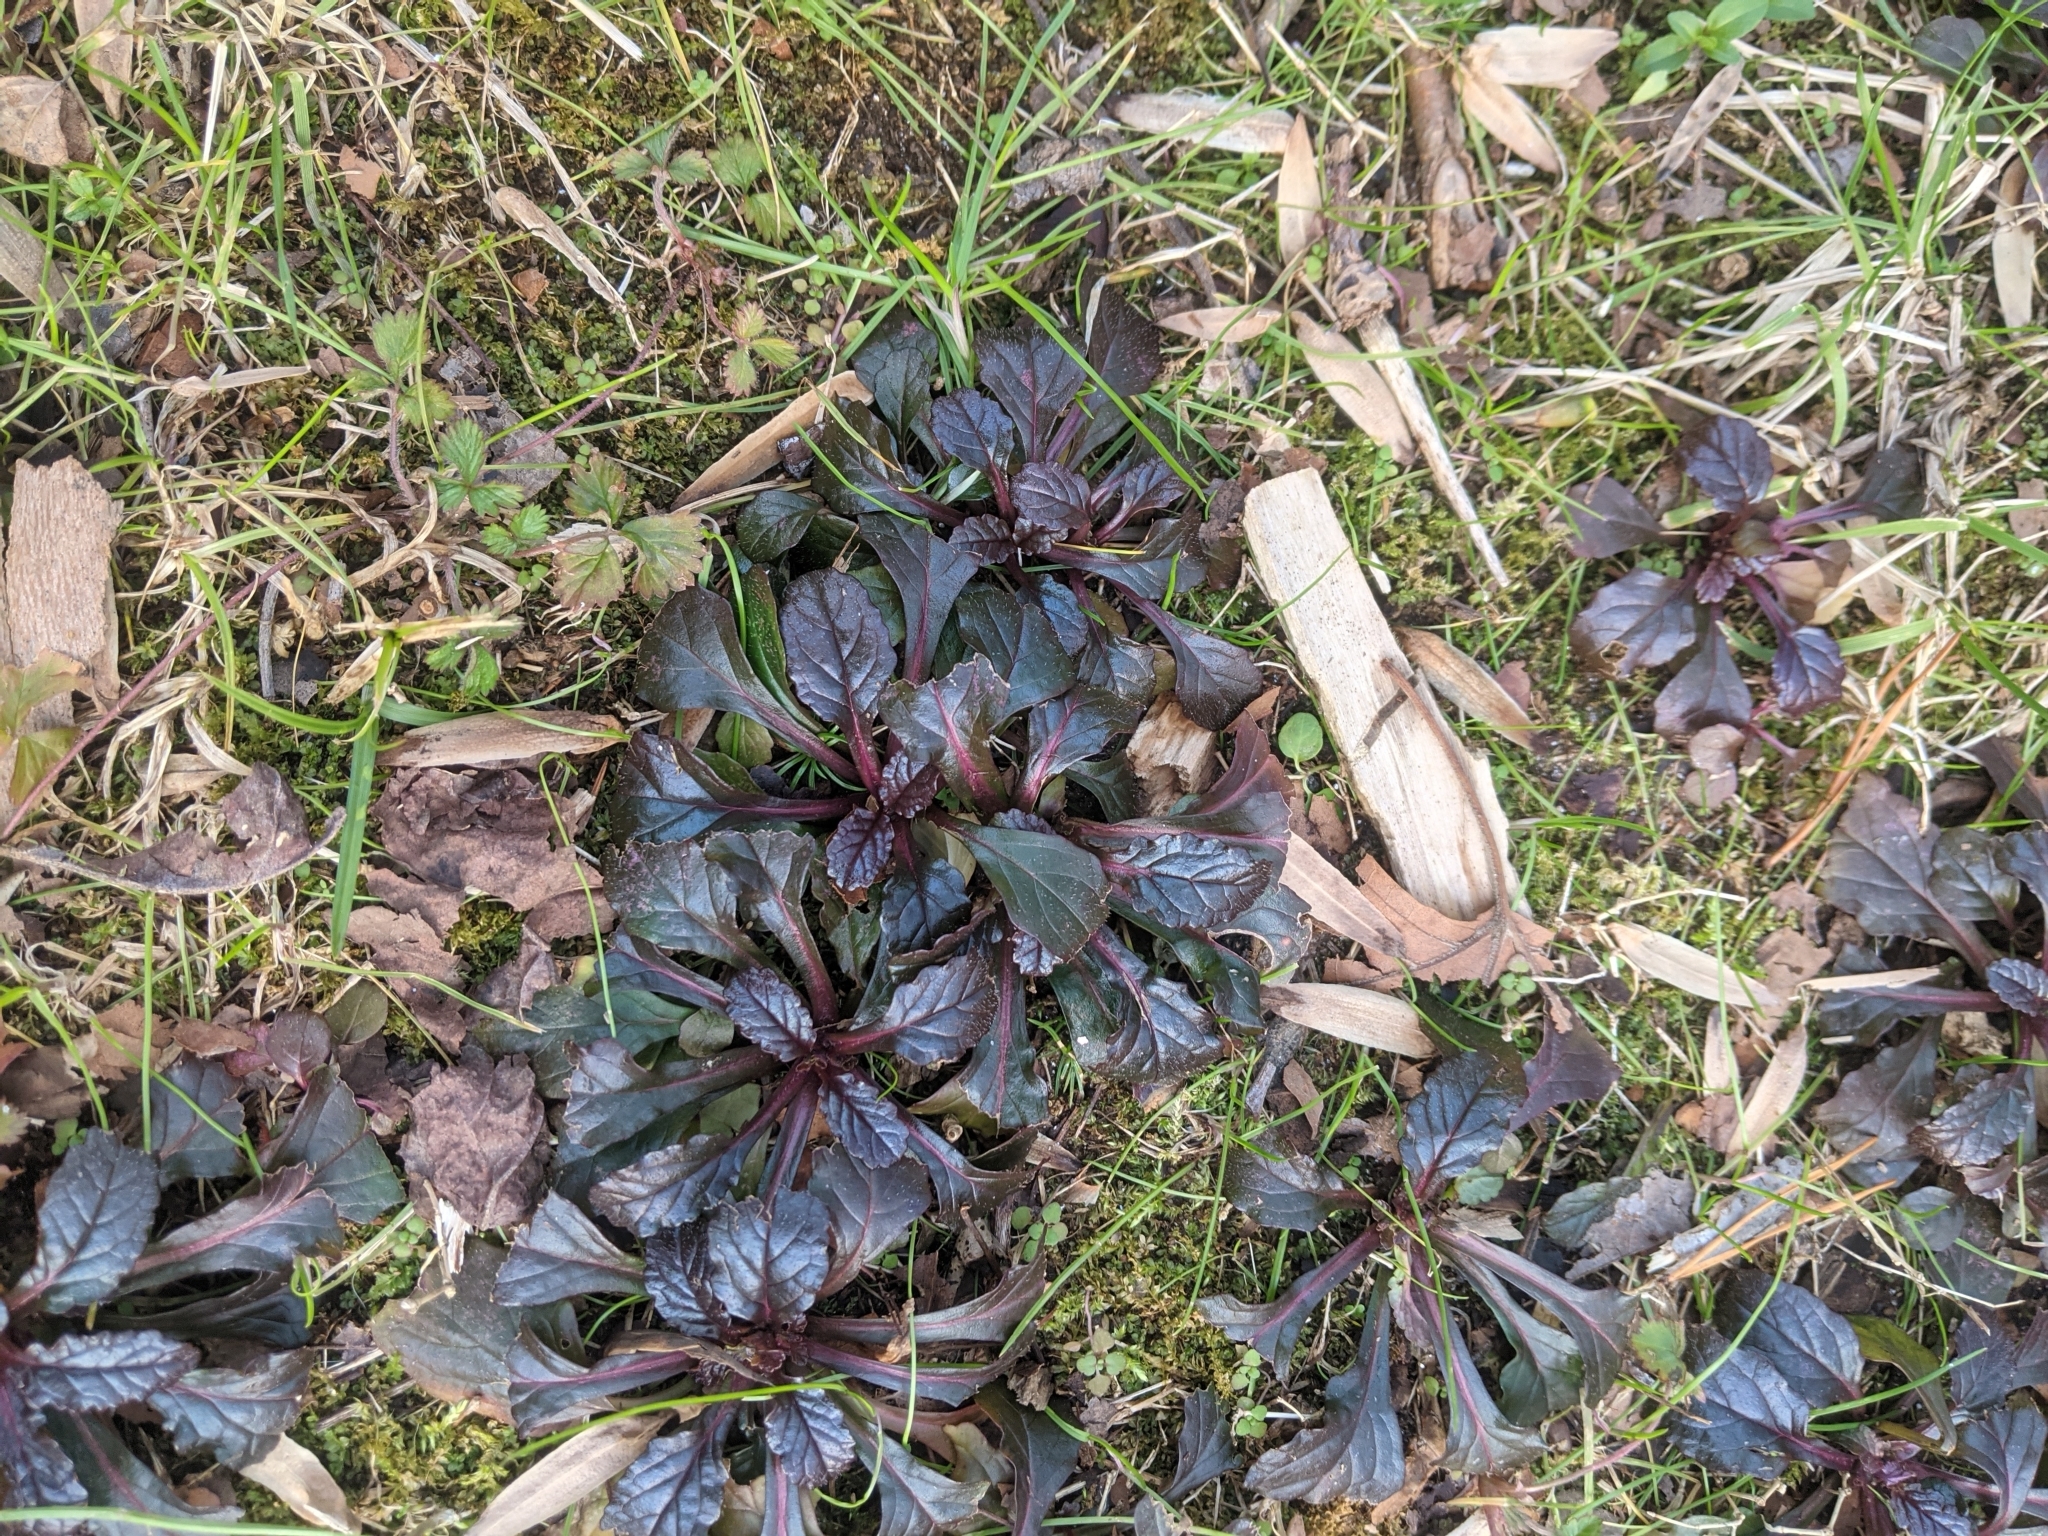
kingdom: Plantae
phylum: Tracheophyta
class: Magnoliopsida
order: Lamiales
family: Lamiaceae
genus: Ajuga
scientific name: Ajuga reptans
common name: Bugle
